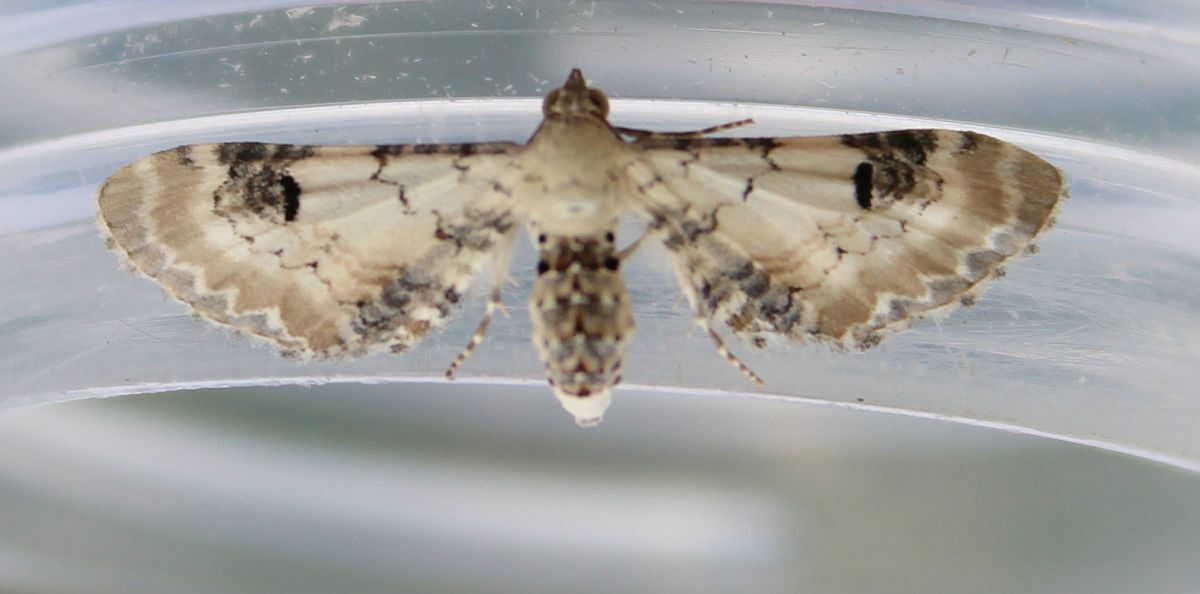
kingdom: Animalia
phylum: Arthropoda
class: Insecta
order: Lepidoptera
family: Geometridae
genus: Eupithecia
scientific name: Eupithecia centaureata
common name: Lime-speck pug
